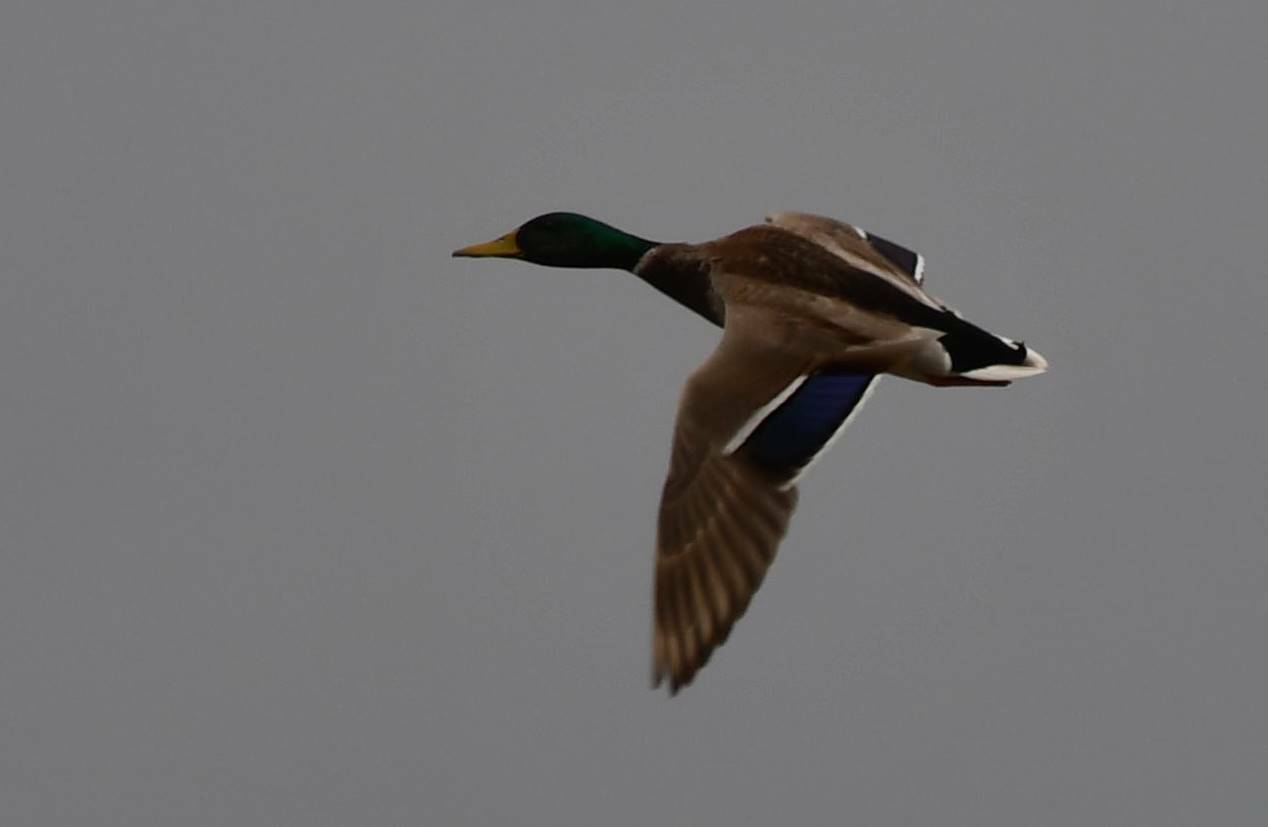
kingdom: Animalia
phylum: Chordata
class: Aves
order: Anseriformes
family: Anatidae
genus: Anas
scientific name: Anas platyrhynchos
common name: Mallard
